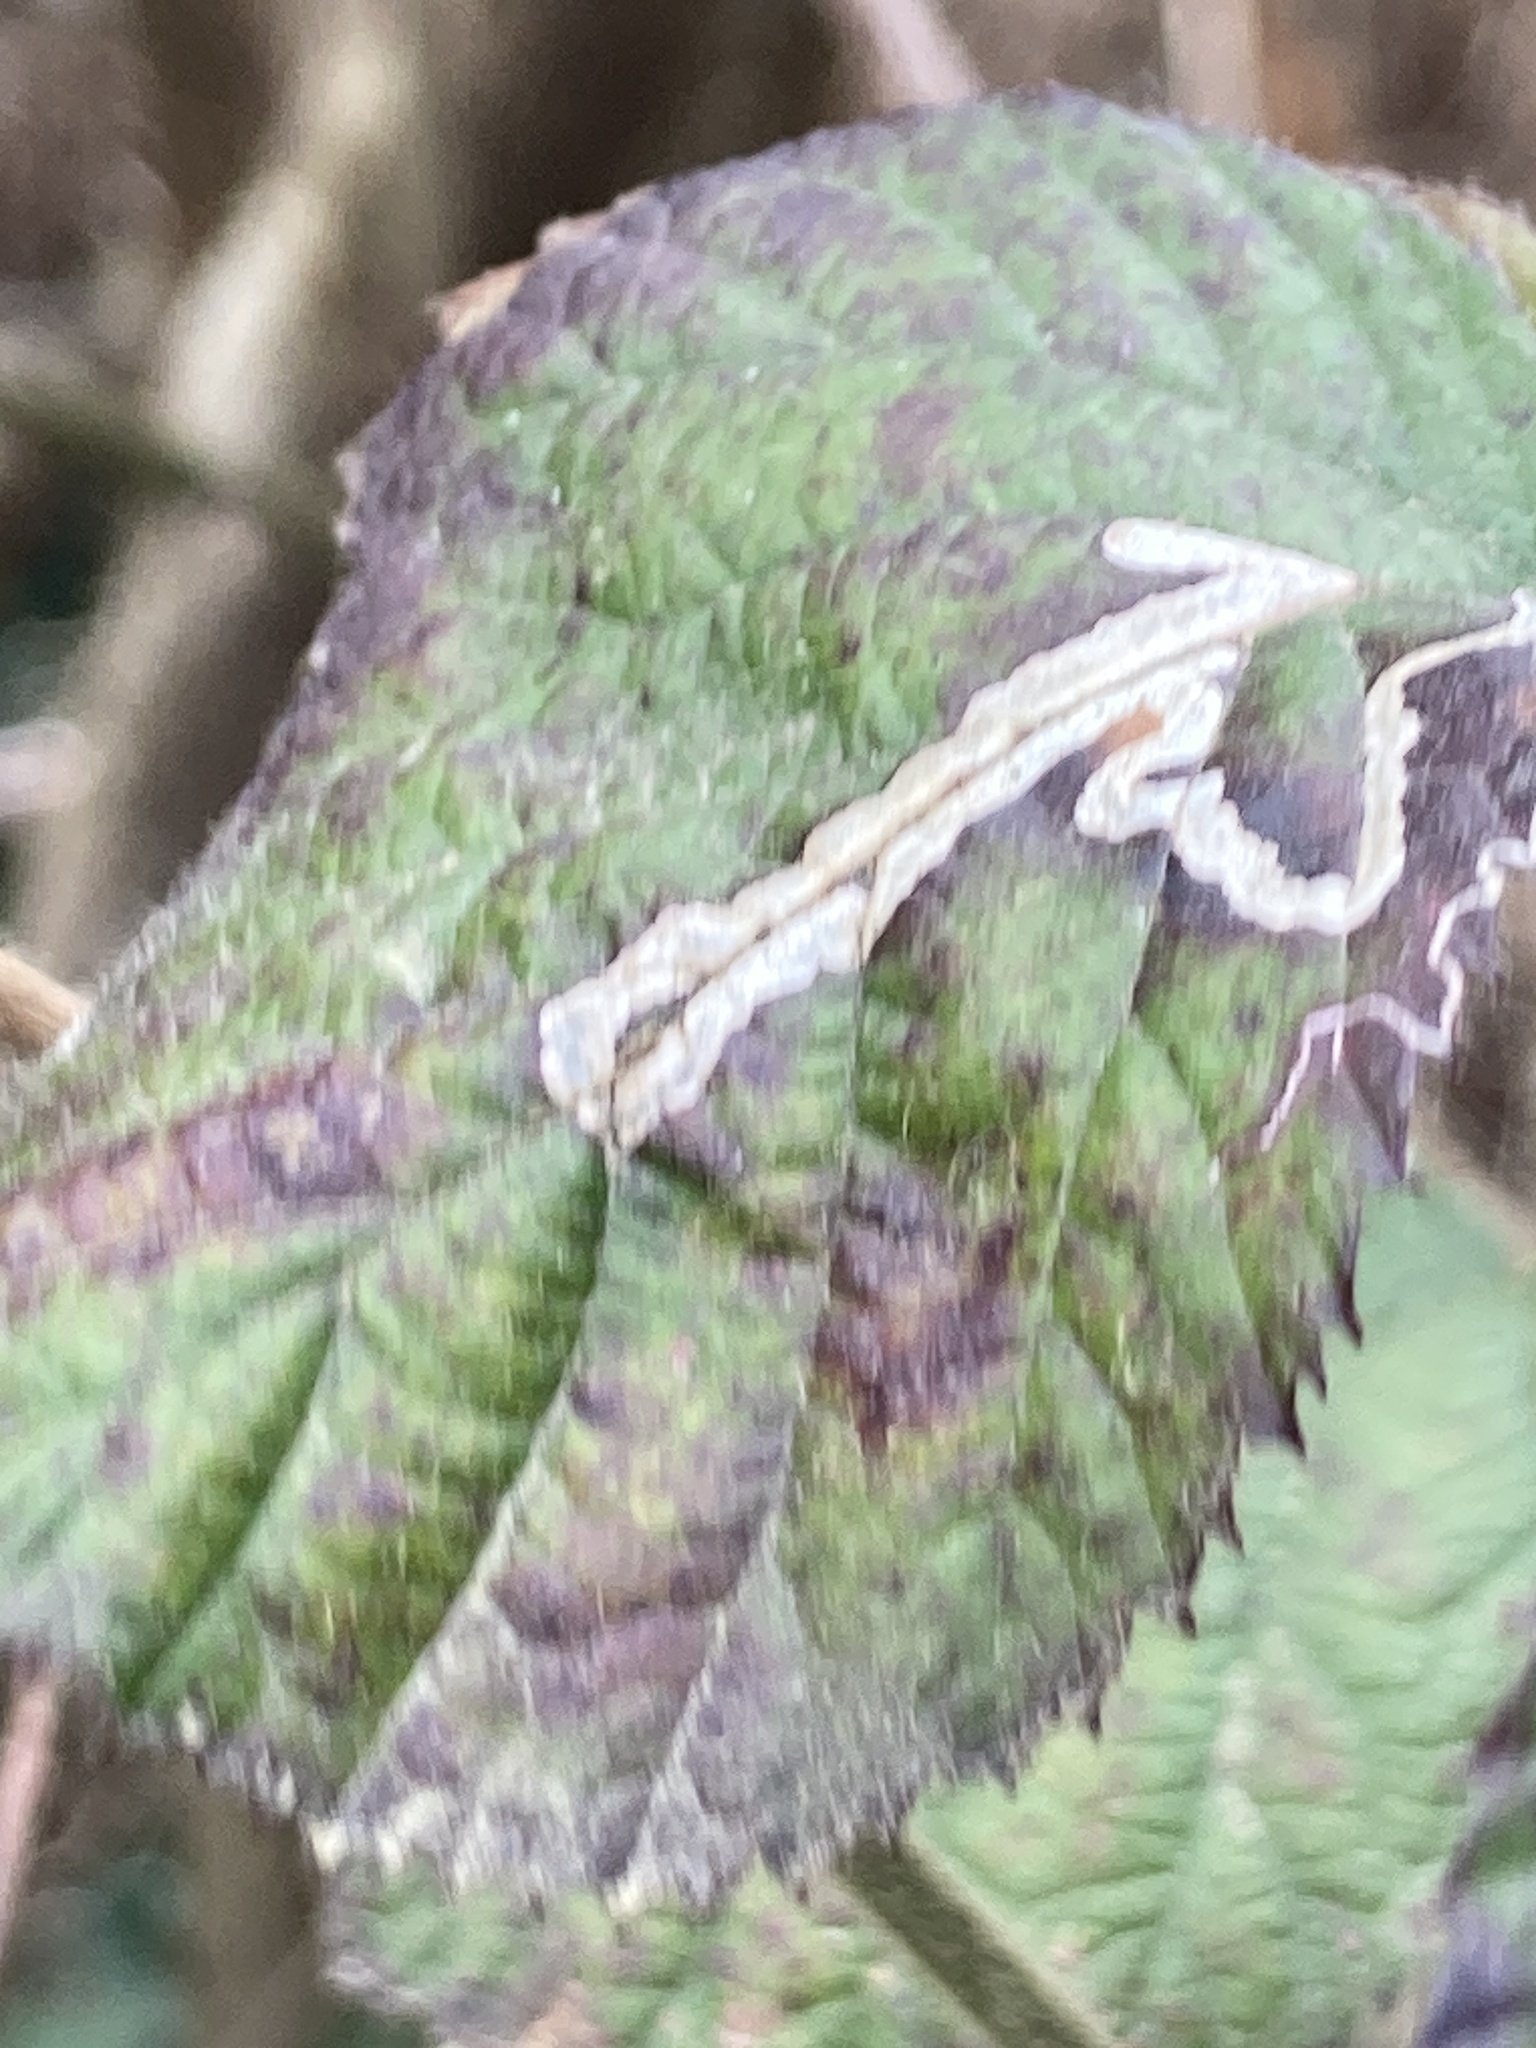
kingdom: Animalia
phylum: Arthropoda
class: Insecta
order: Lepidoptera
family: Nepticulidae
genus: Stigmella
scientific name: Stigmella aurella
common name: Golden pigmy
